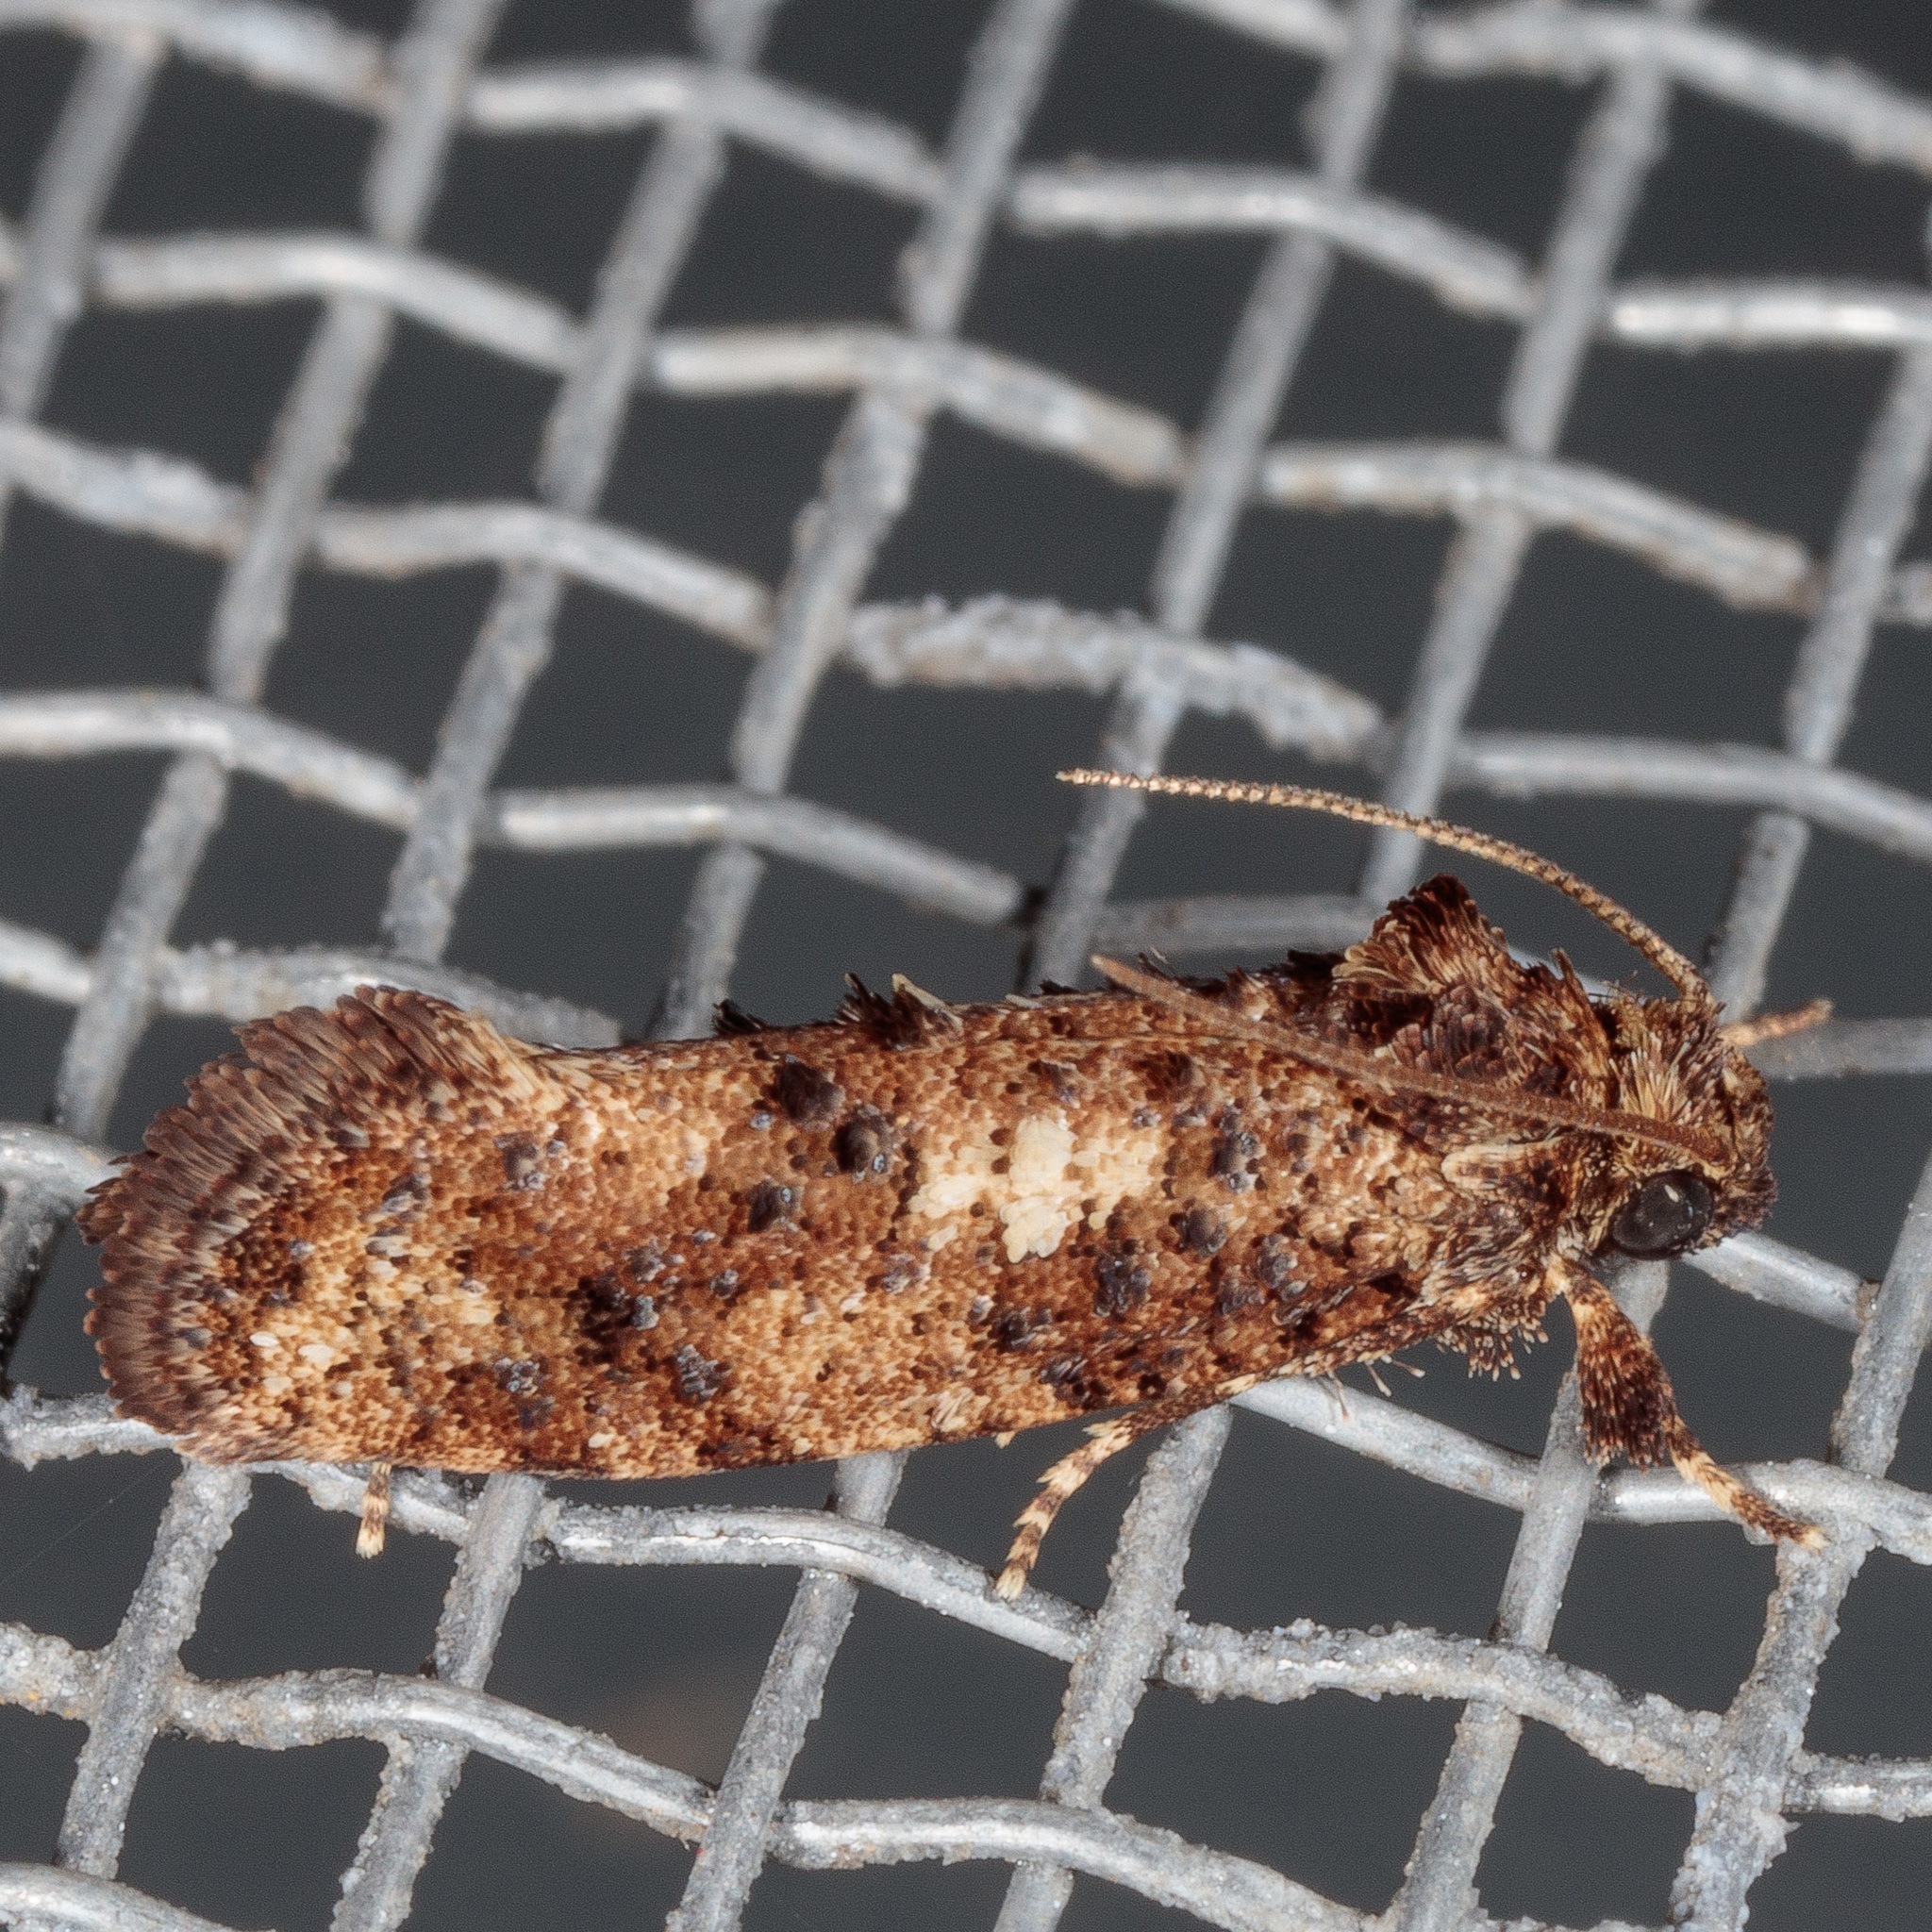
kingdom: Animalia
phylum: Arthropoda
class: Insecta
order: Lepidoptera
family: Tineidae
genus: Acrolophus
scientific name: Acrolophus cressoni
